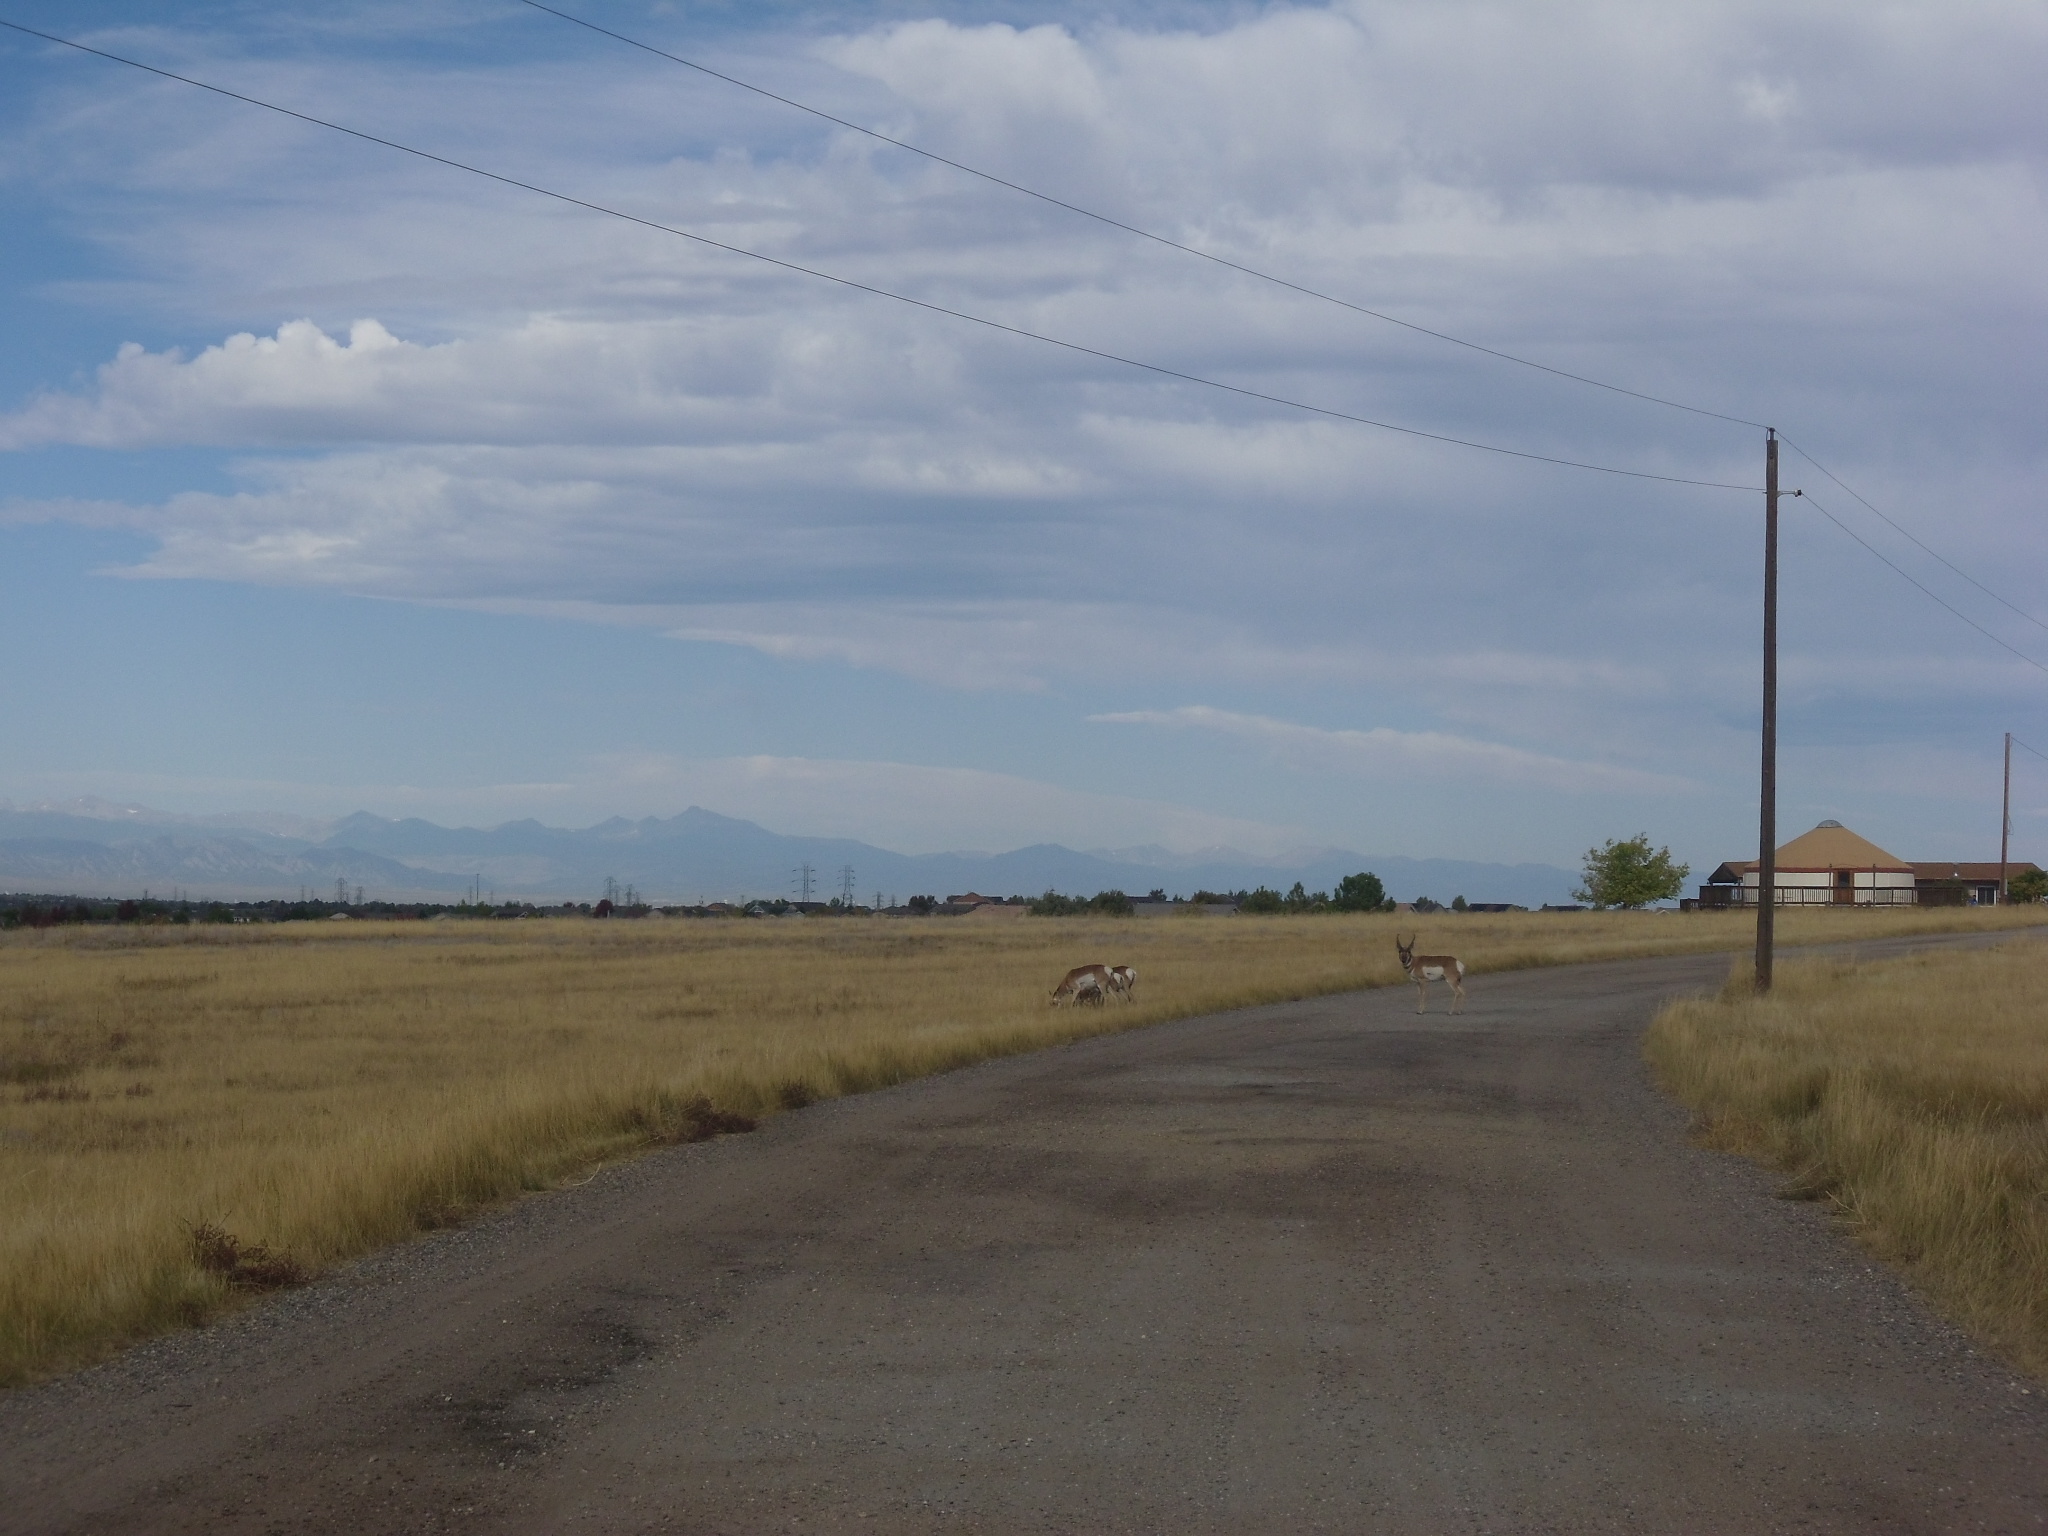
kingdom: Animalia
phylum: Chordata
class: Mammalia
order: Artiodactyla
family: Antilocapridae
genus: Antilocapra
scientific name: Antilocapra americana
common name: Pronghorn
